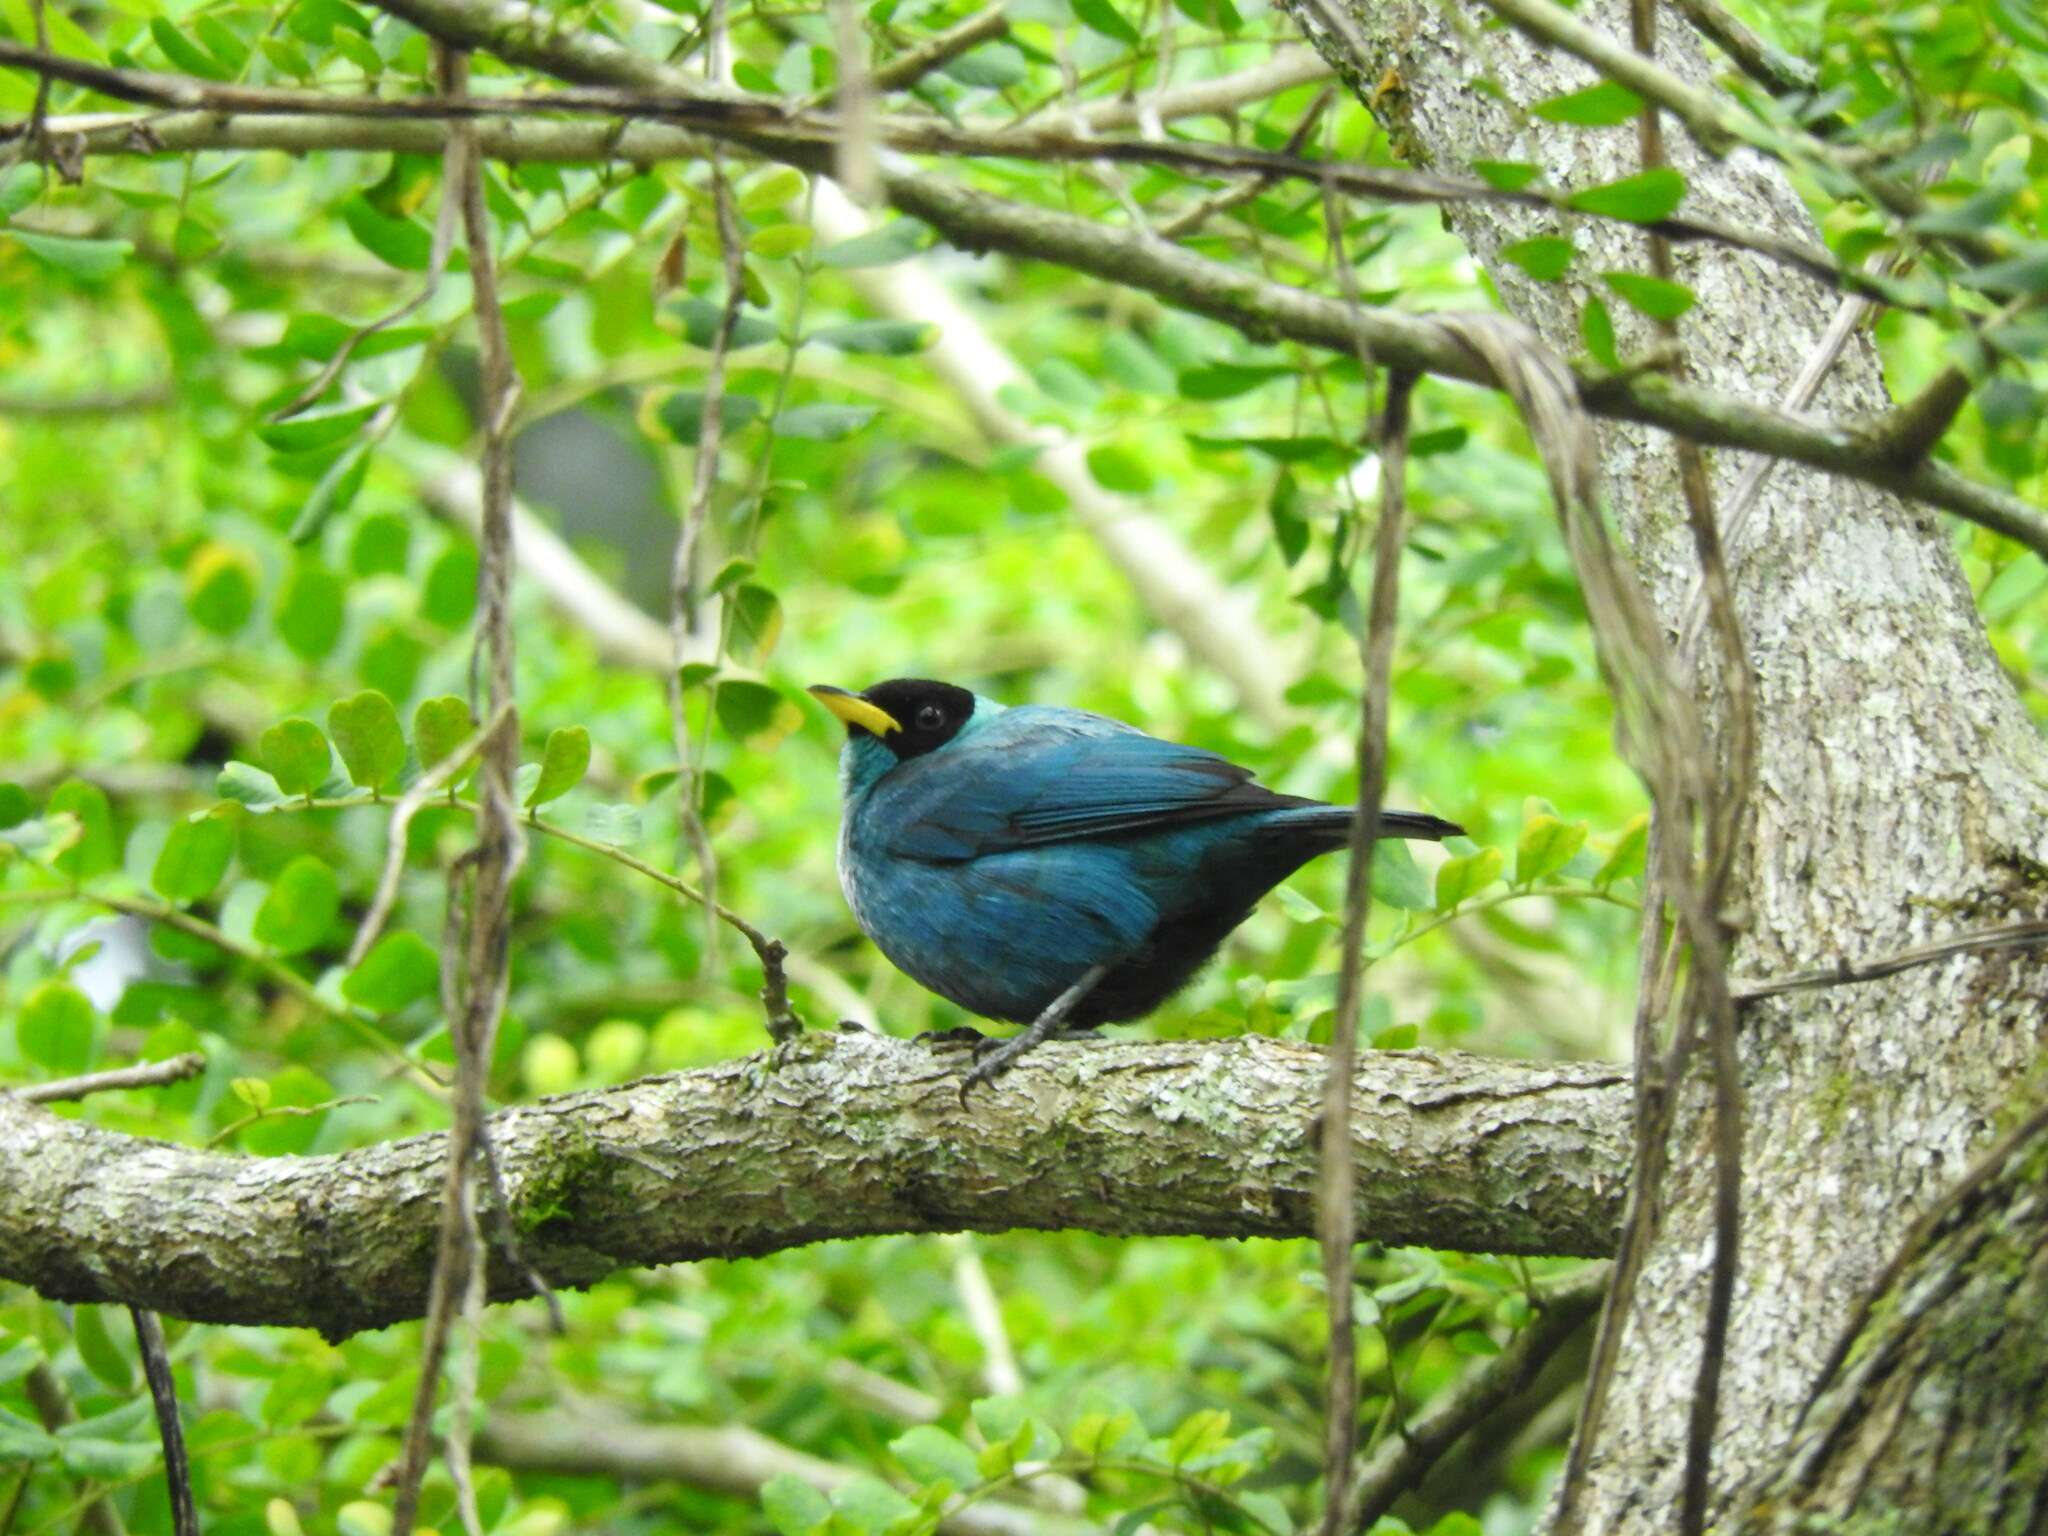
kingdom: Animalia
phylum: Chordata
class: Aves
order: Passeriformes
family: Thraupidae
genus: Chlorophanes
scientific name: Chlorophanes spiza
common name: Green honeycreeper
